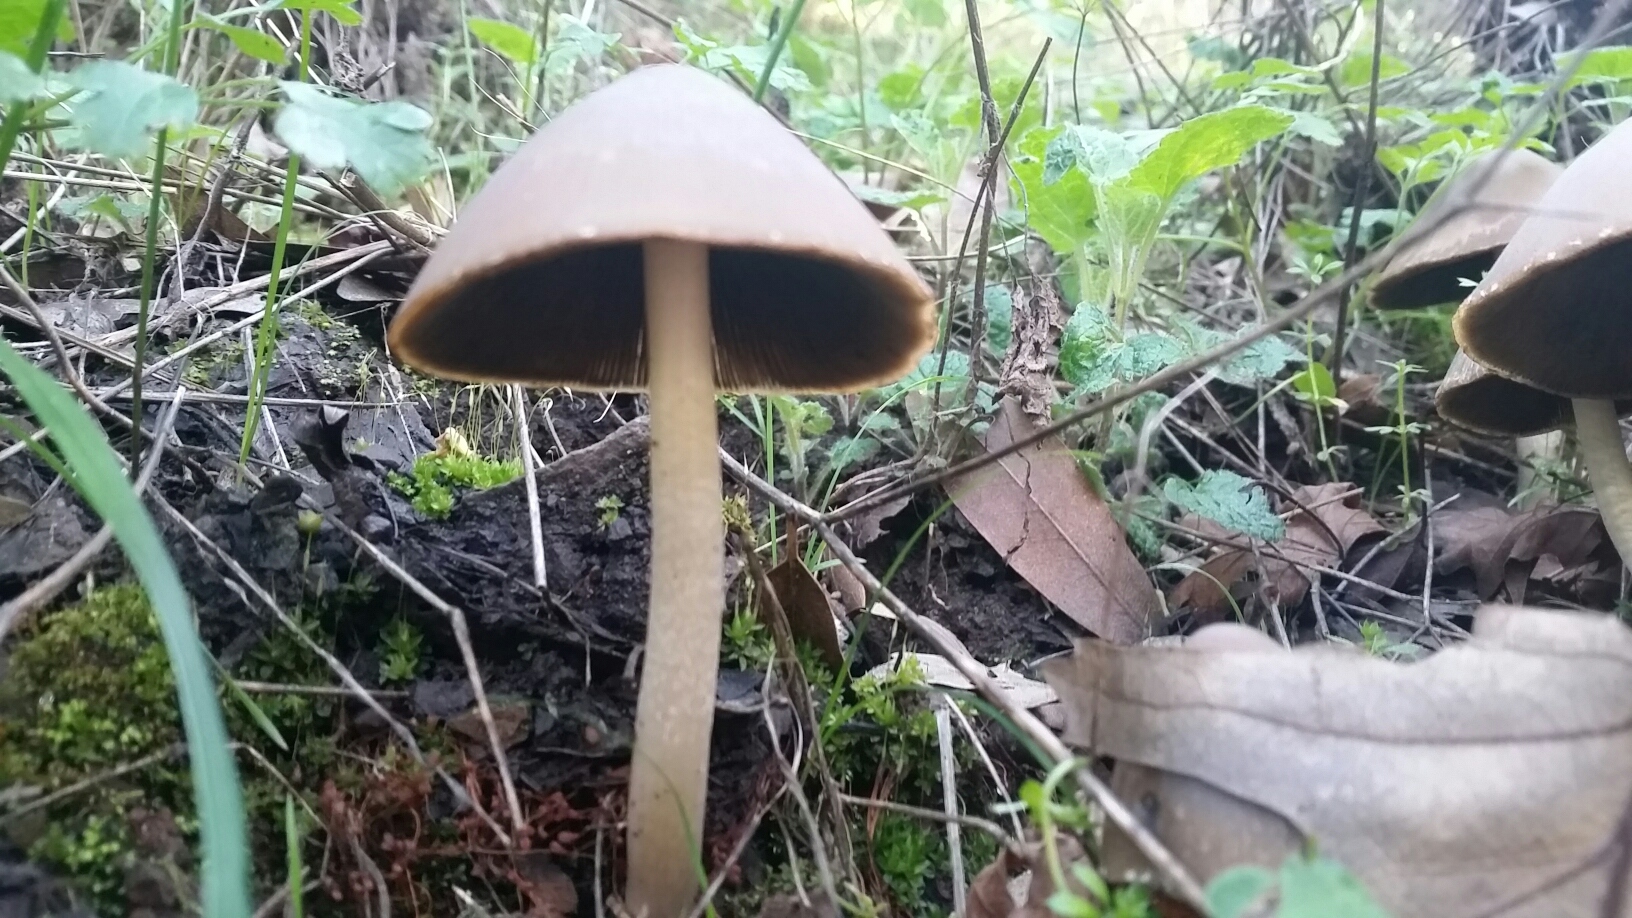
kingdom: Fungi
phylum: Basidiomycota
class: Agaricomycetes
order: Agaricales
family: Psathyrellaceae
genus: Psathyrella
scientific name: Psathyrella longipes
